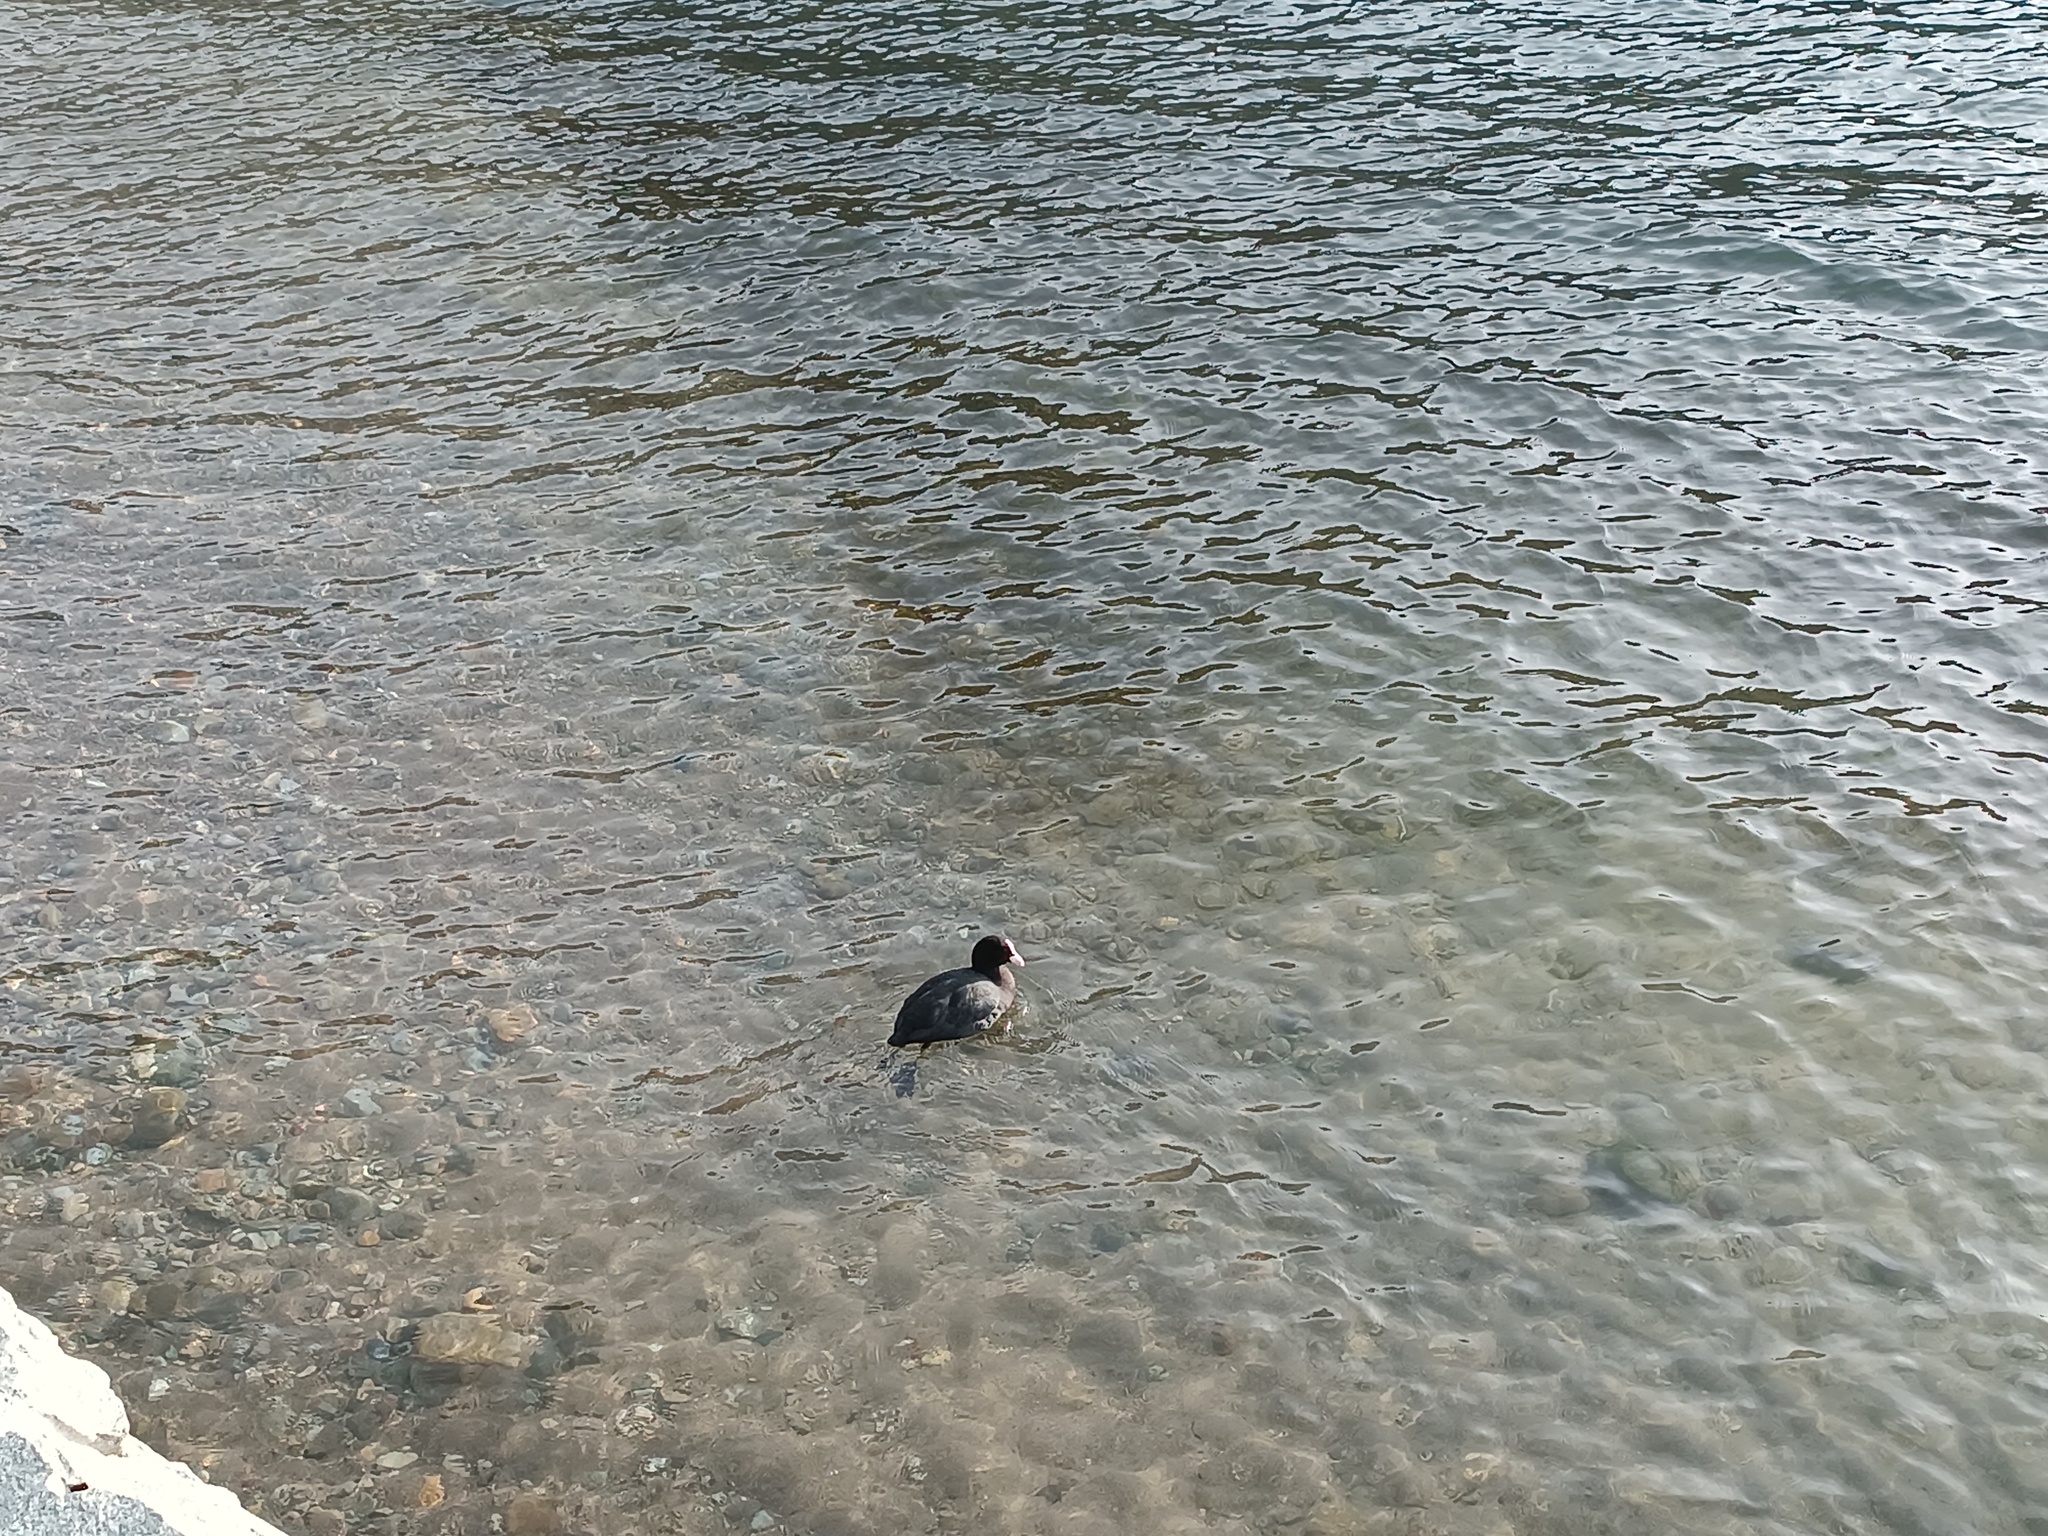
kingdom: Animalia
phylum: Chordata
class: Aves
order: Gruiformes
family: Rallidae
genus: Fulica
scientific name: Fulica atra
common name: Eurasian coot
